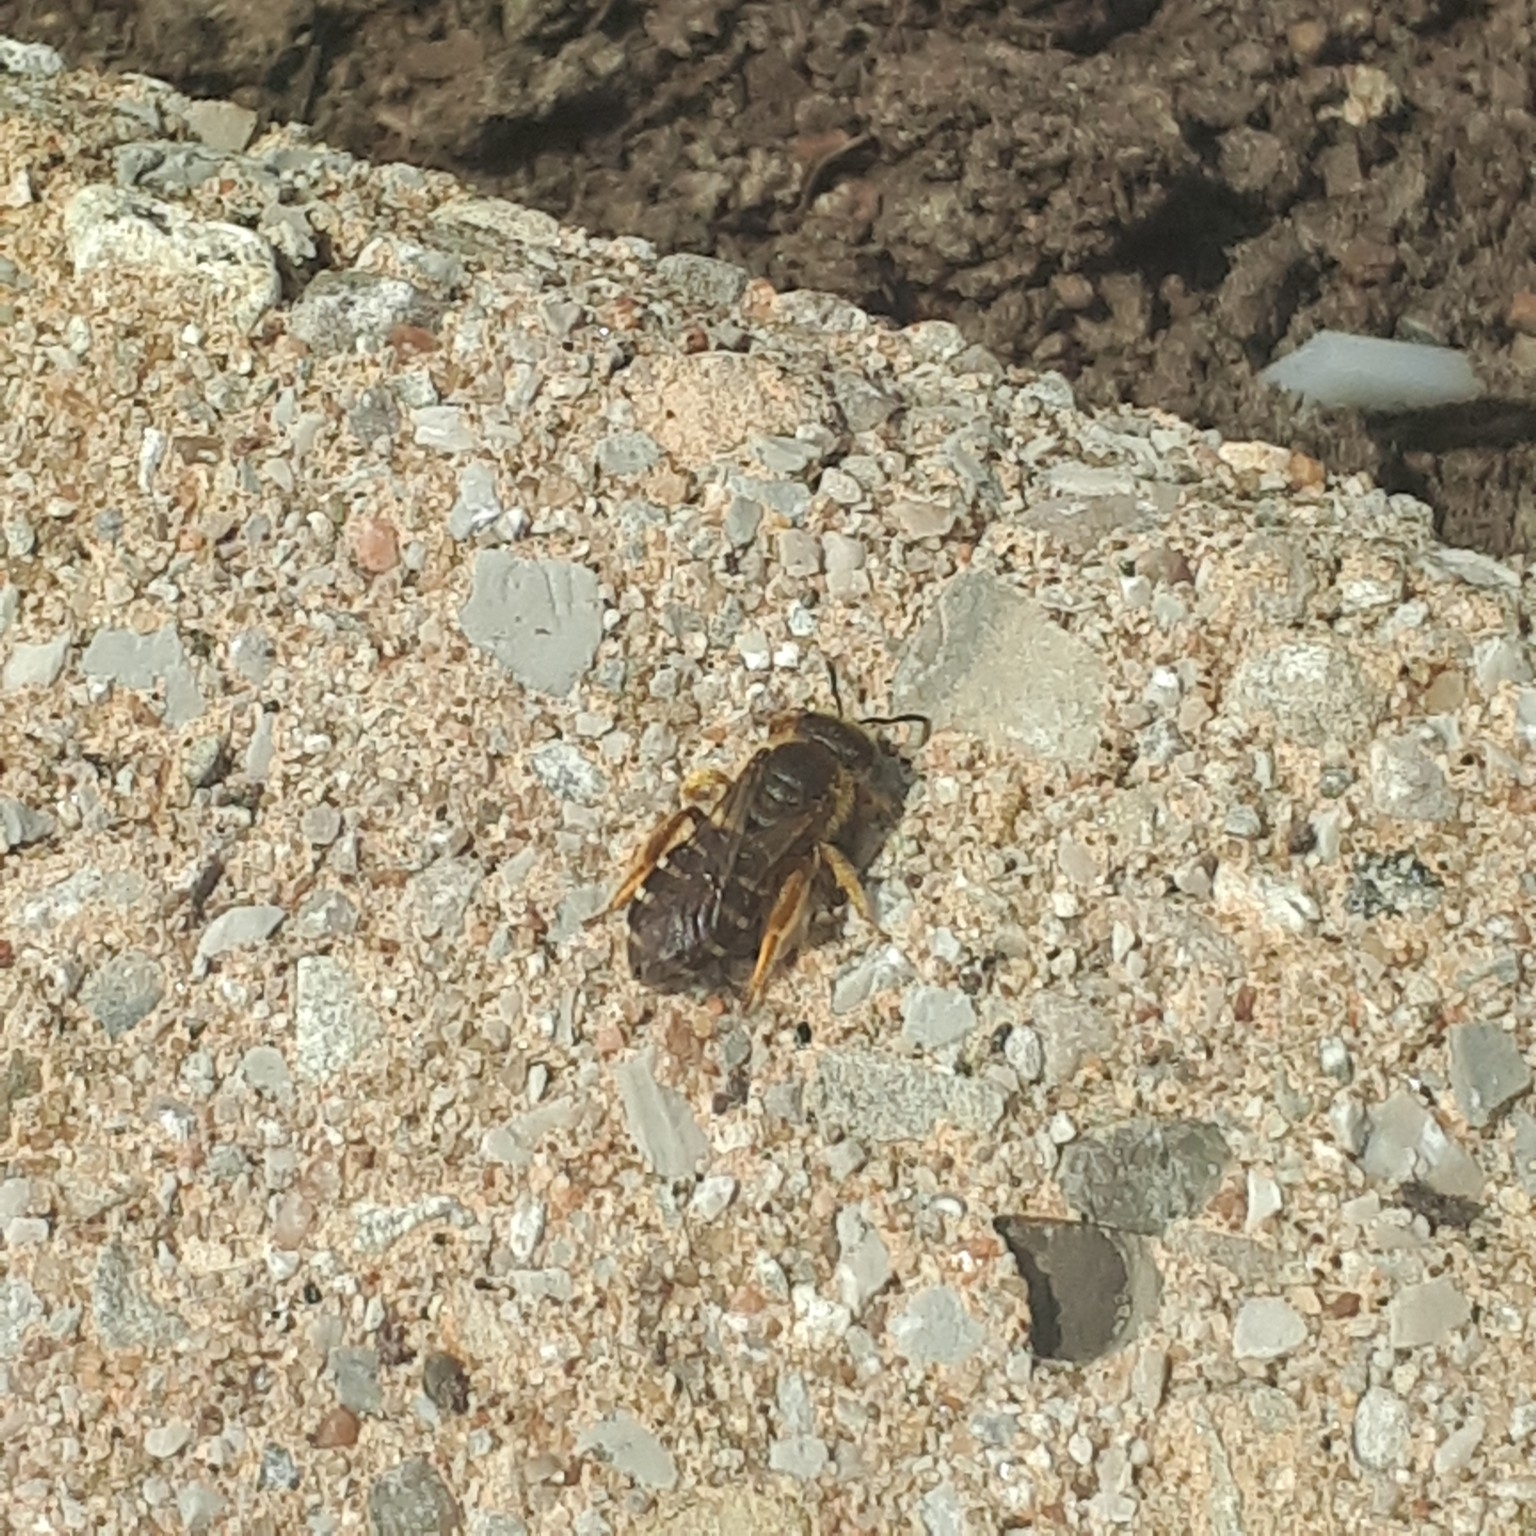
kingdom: Animalia
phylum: Arthropoda
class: Insecta
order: Hymenoptera
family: Halictidae
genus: Halictus
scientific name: Halictus rubicundus
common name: Orange-legged furrow bee
